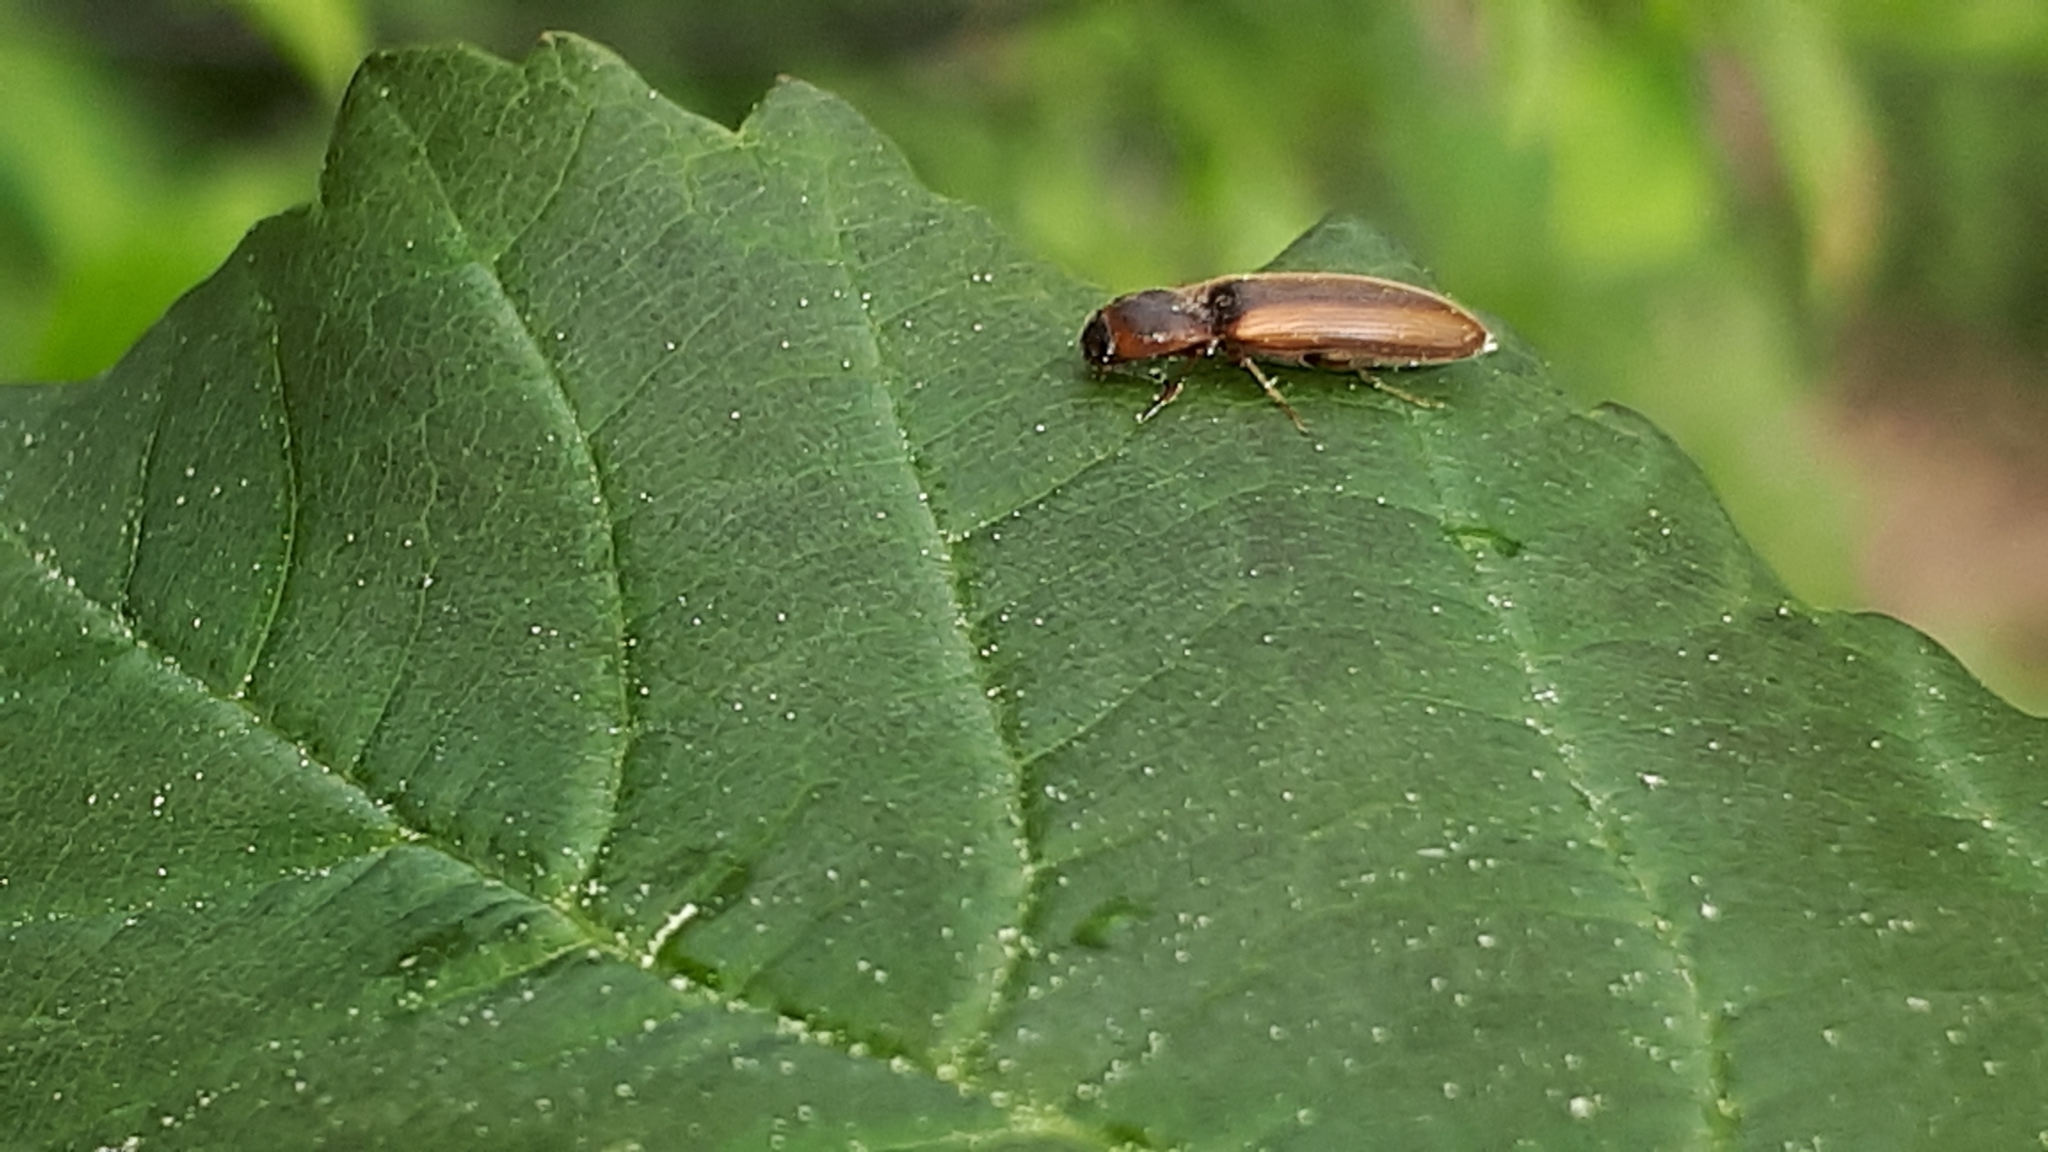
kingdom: Animalia
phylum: Arthropoda
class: Insecta
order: Coleoptera
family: Elateridae
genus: Dalopius
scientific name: Dalopius marginatus
